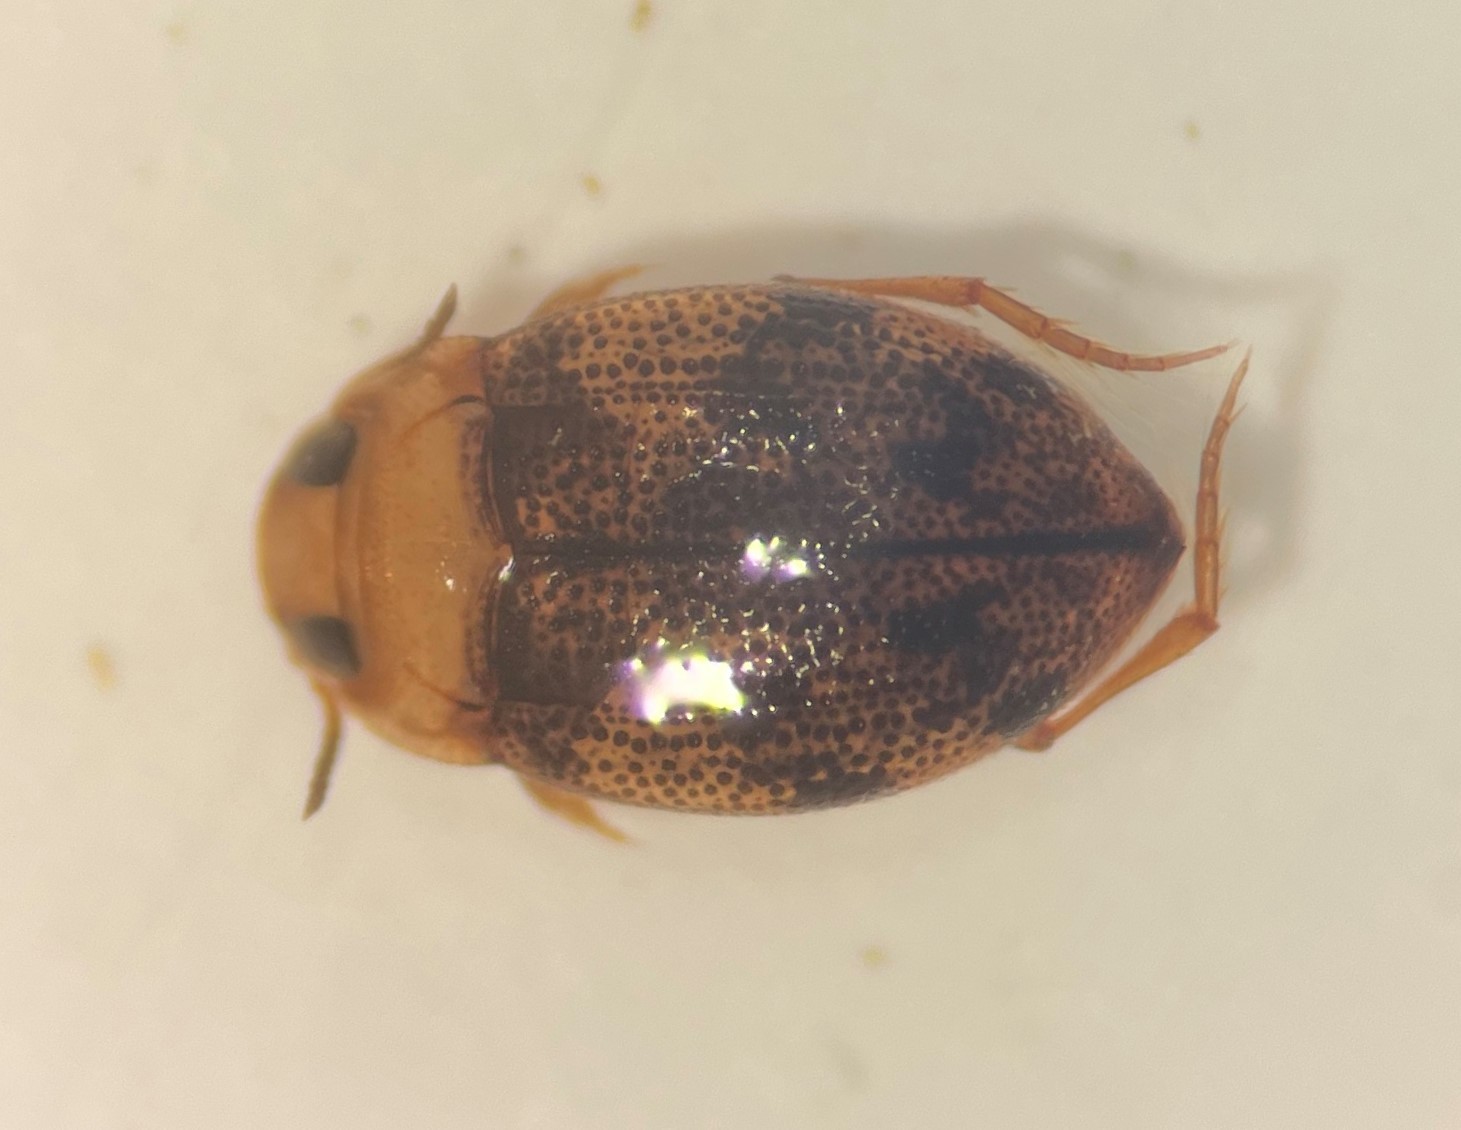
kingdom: Animalia
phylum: Arthropoda
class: Insecta
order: Coleoptera
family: Dytiscidae
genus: Anodocheilus
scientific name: Anodocheilus exiguus
